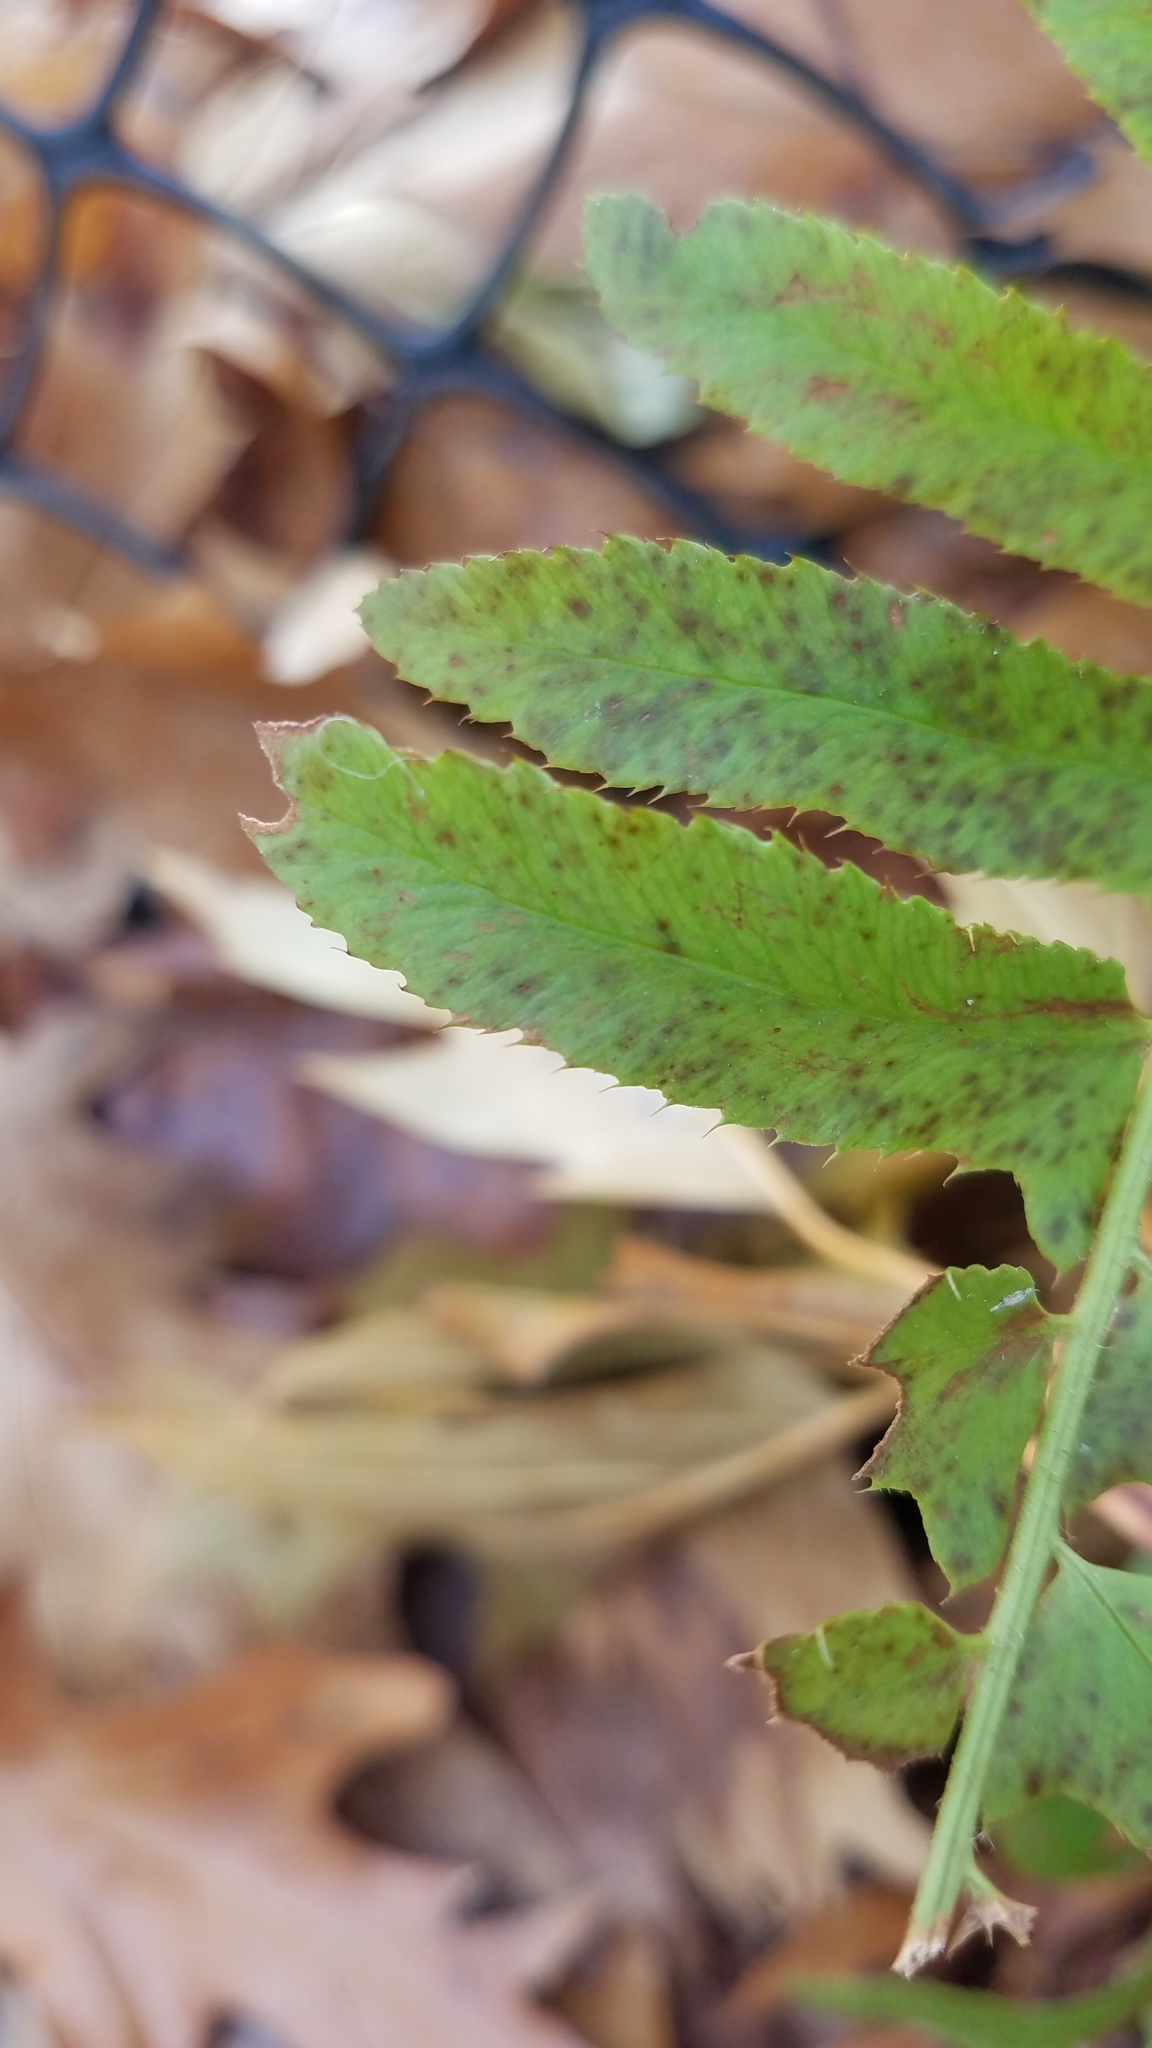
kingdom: Plantae
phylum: Tracheophyta
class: Polypodiopsida
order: Polypodiales
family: Dryopteridaceae
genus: Polystichum
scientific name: Polystichum acrostichoides
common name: Christmas fern
